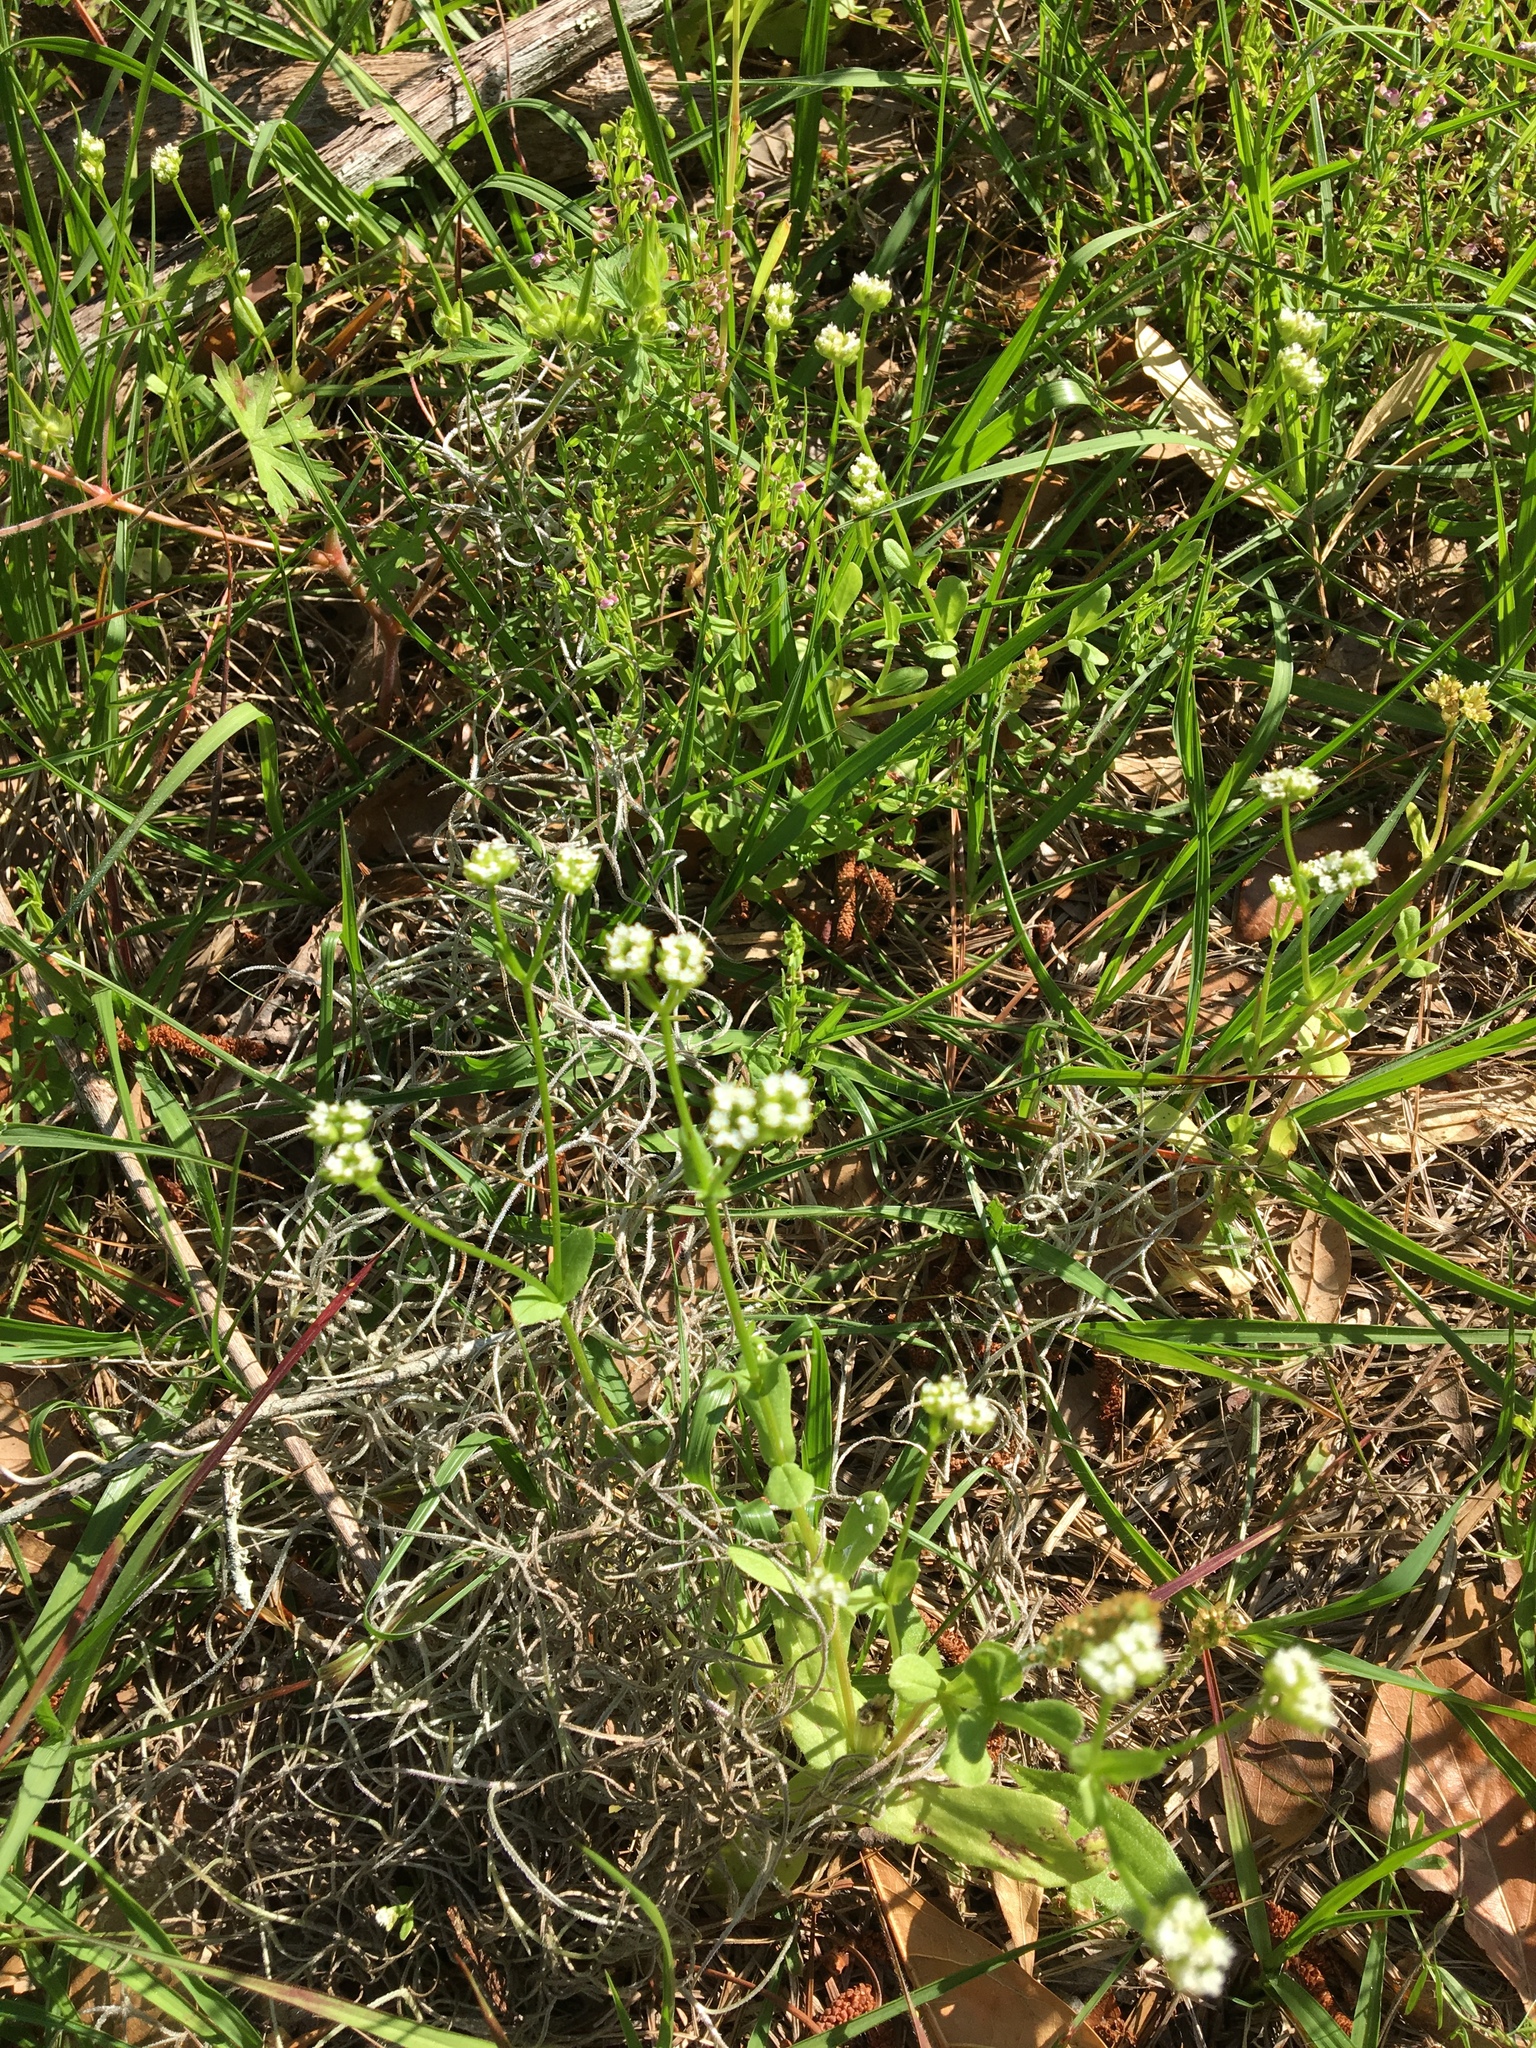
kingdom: Plantae
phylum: Tracheophyta
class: Magnoliopsida
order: Dipsacales
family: Caprifoliaceae
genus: Valerianella
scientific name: Valerianella radiata
